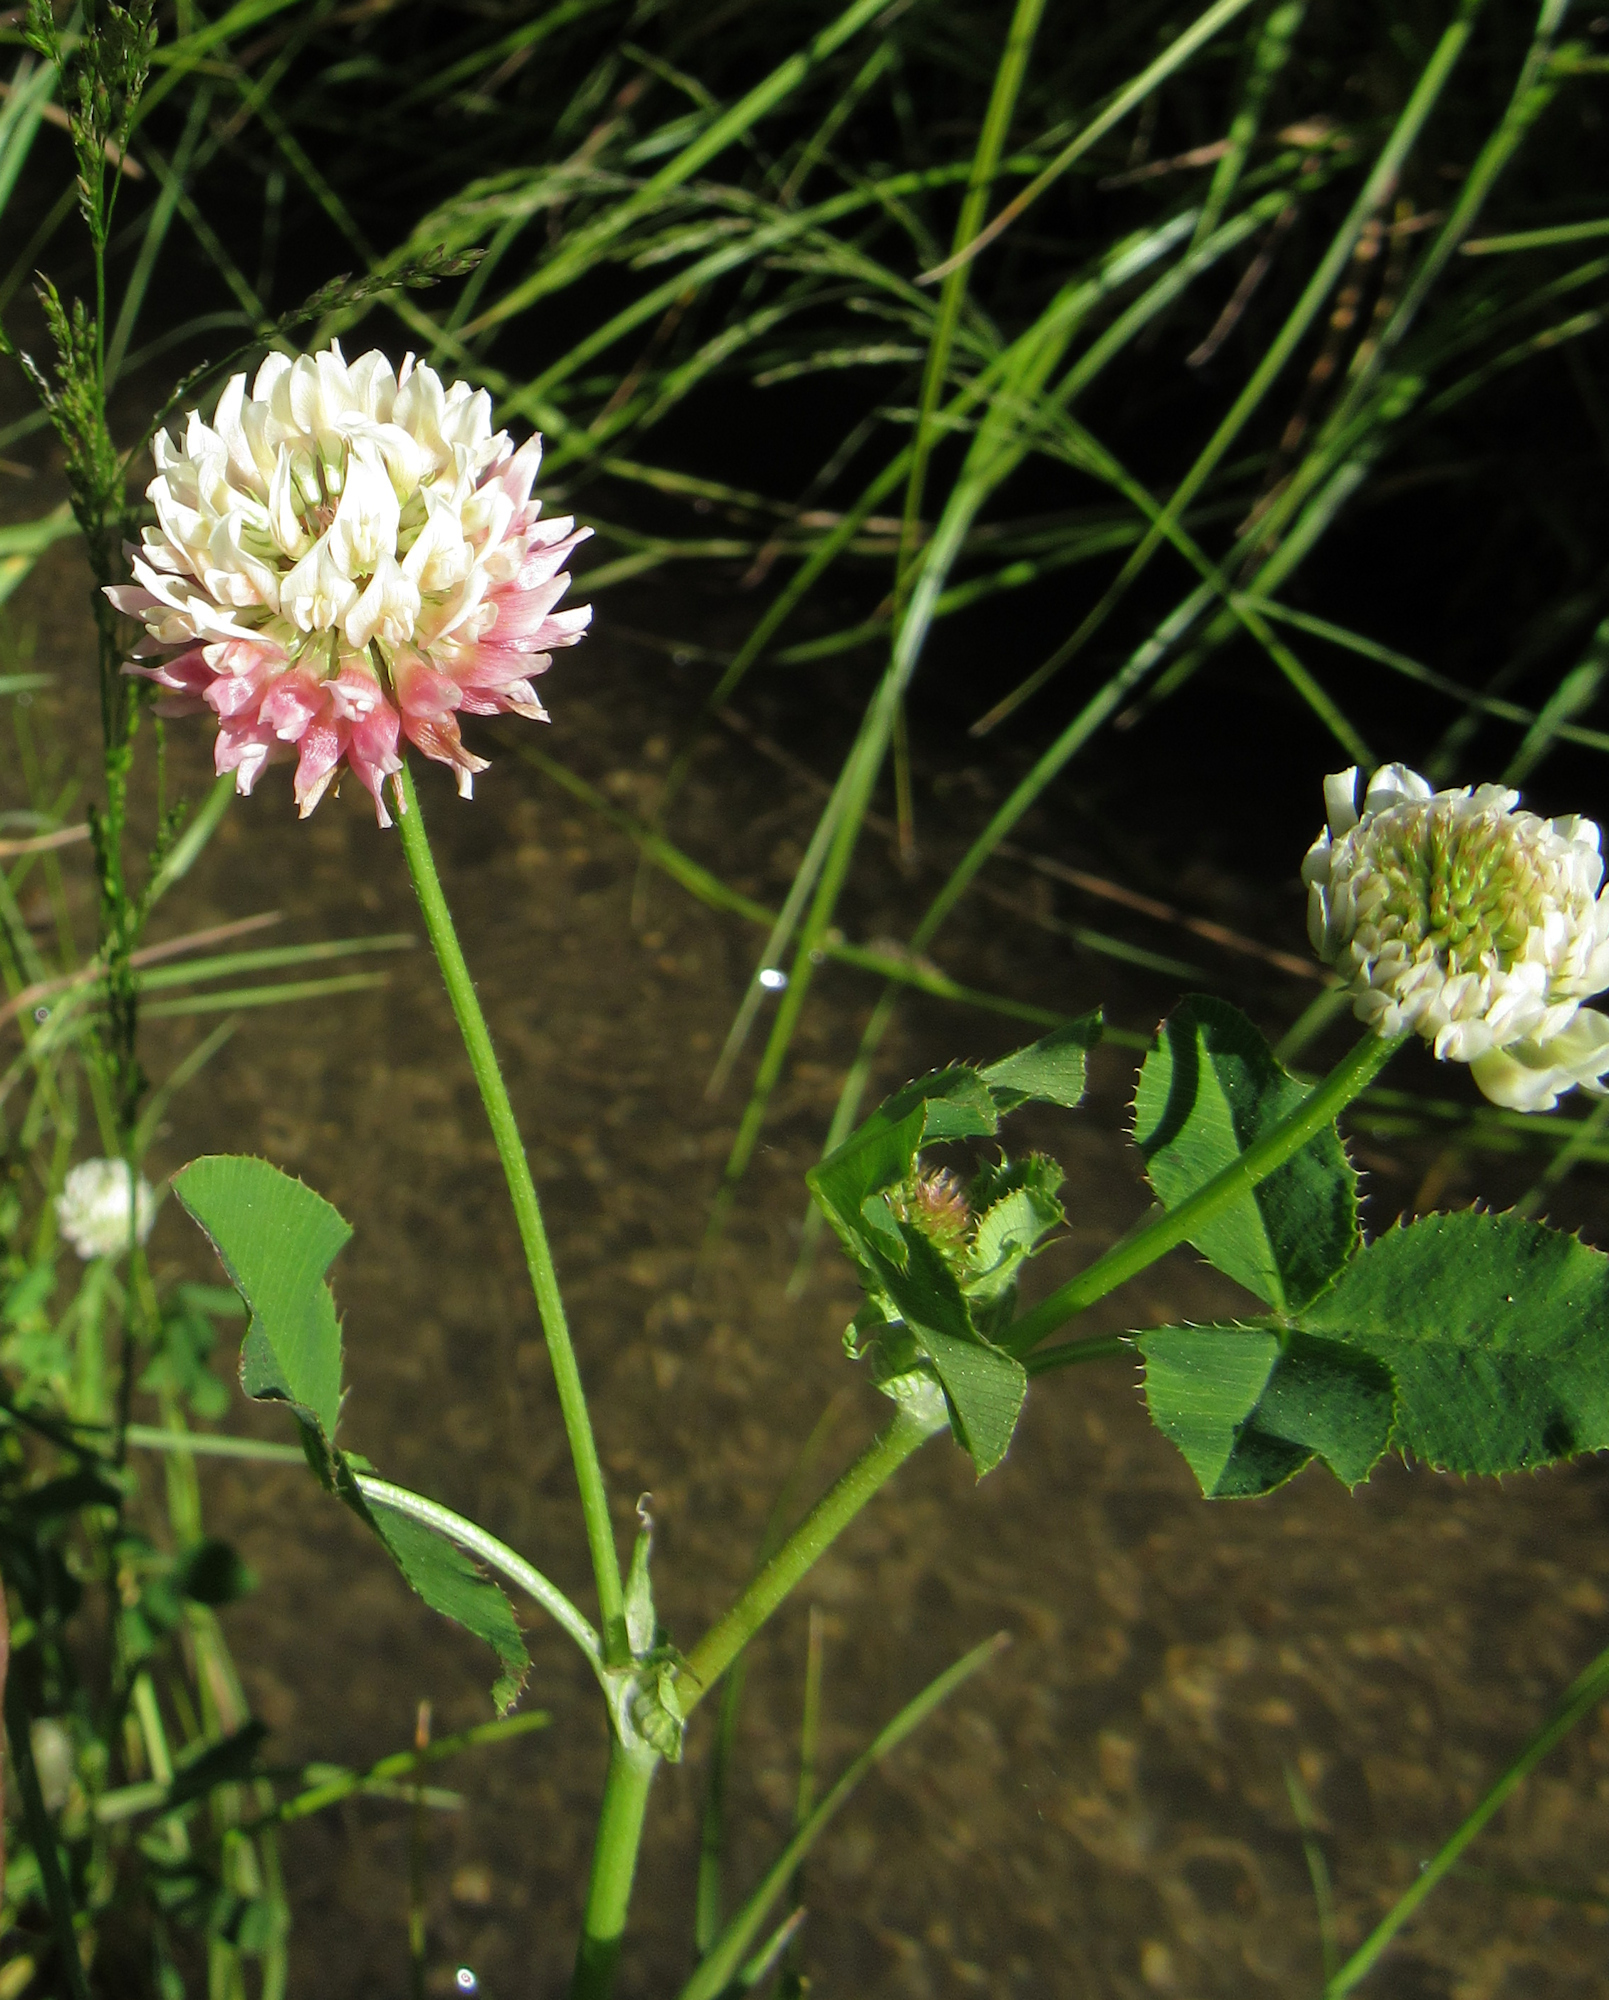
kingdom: Plantae
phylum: Tracheophyta
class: Magnoliopsida
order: Fabales
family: Fabaceae
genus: Trifolium
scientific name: Trifolium hybridum
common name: Alsike clover
